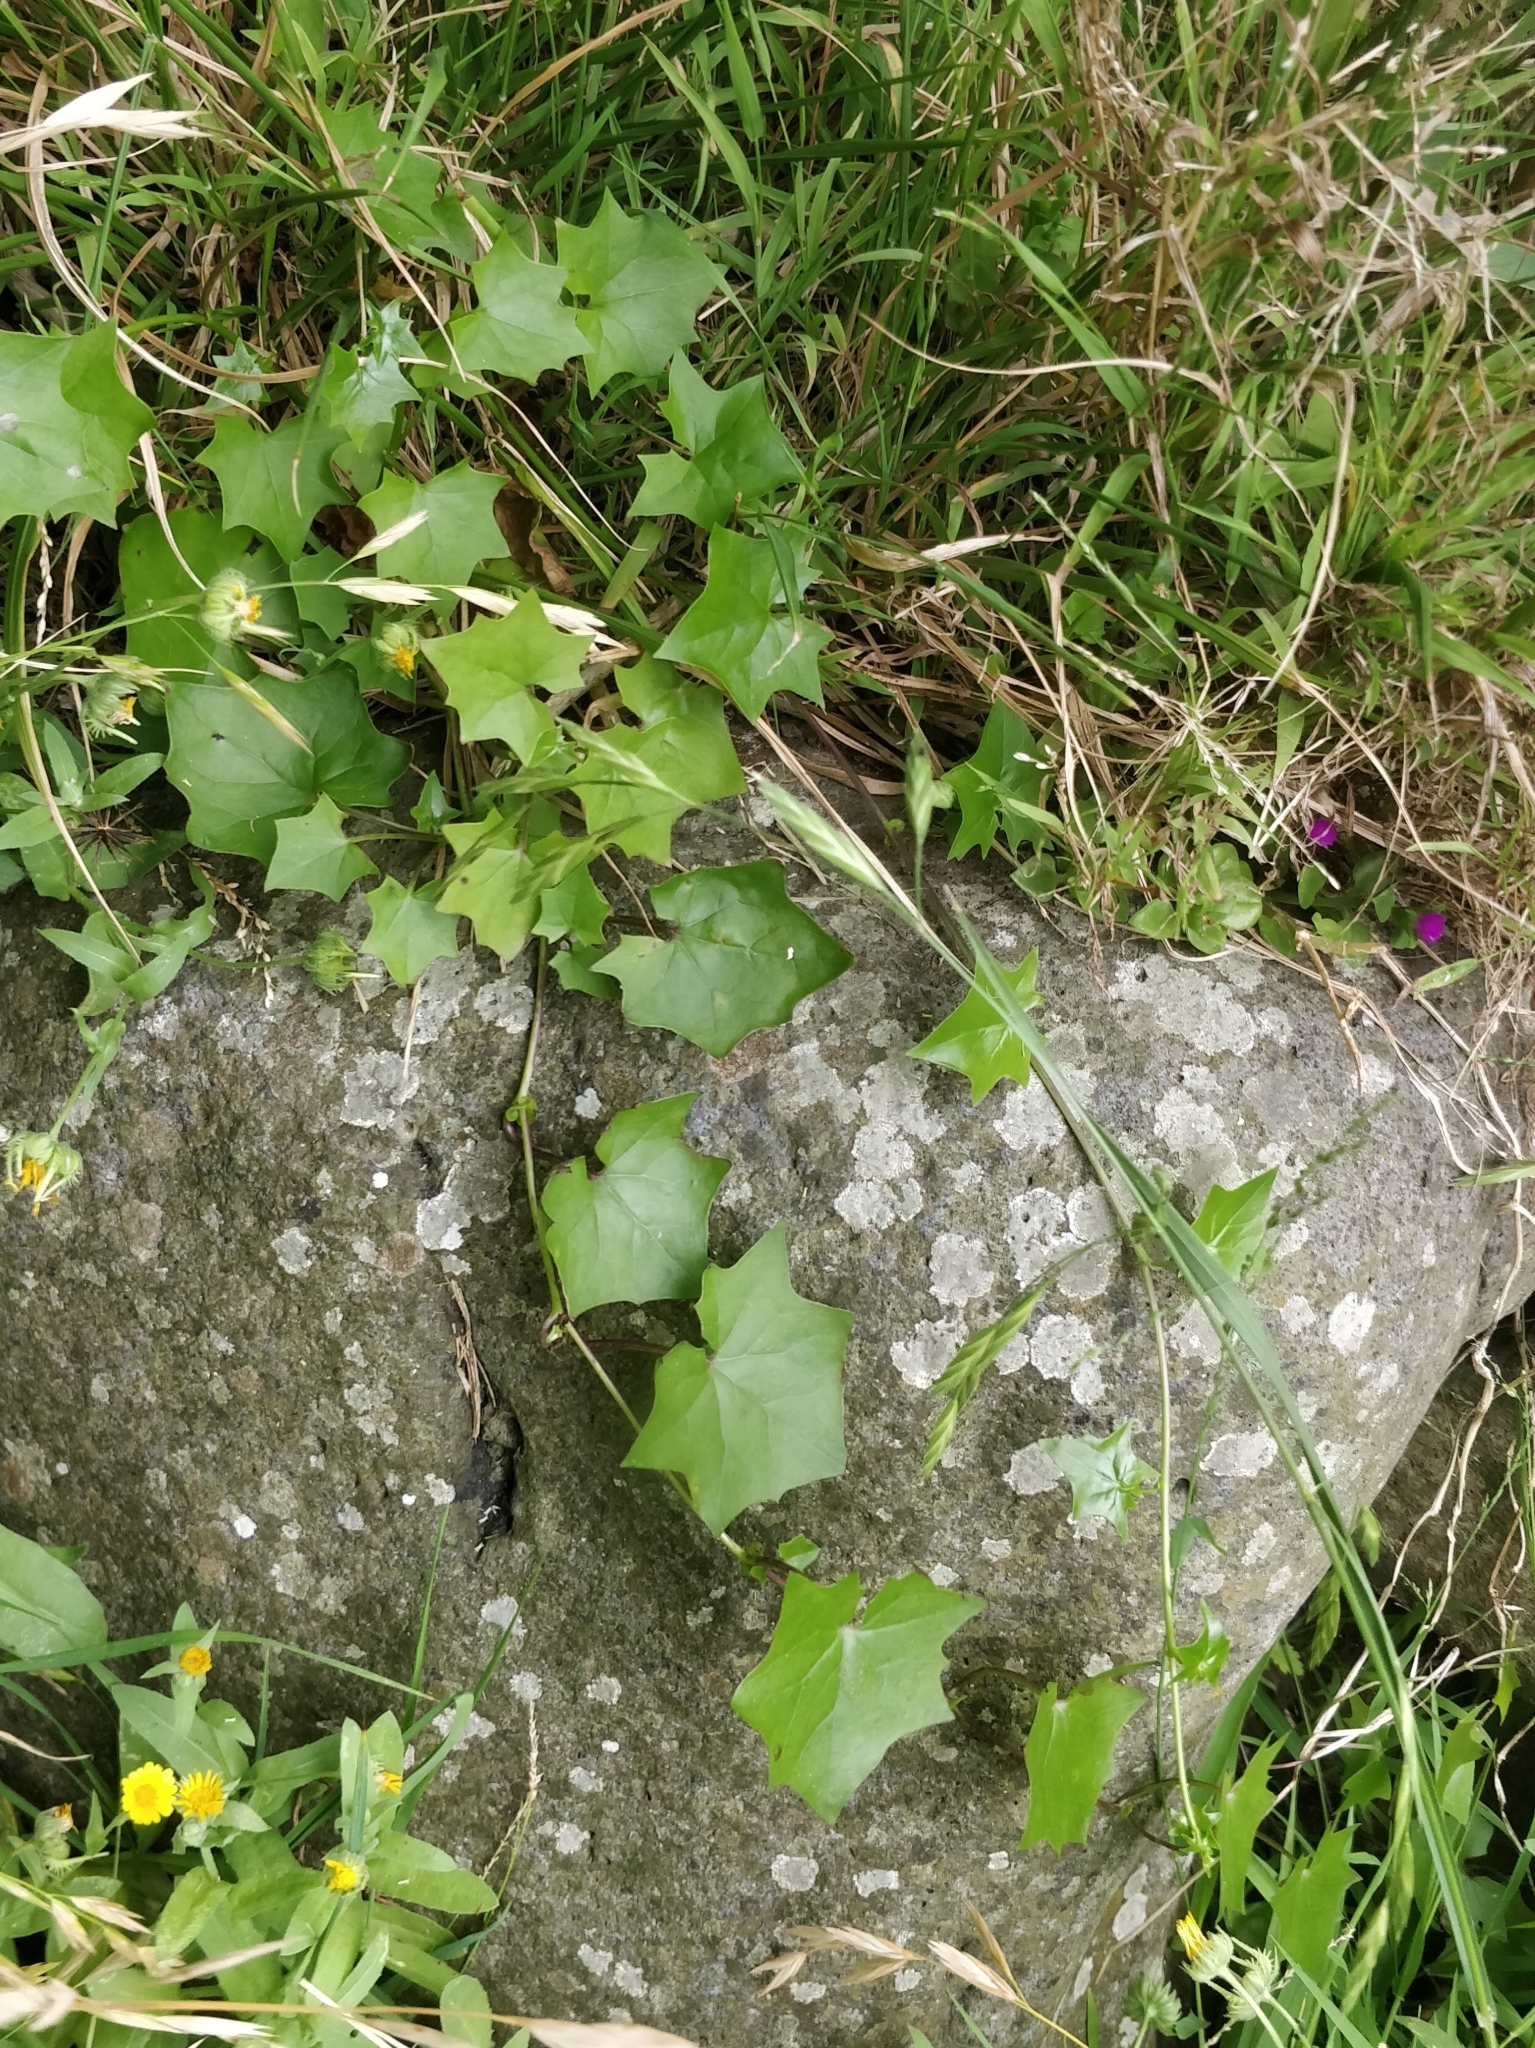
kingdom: Plantae
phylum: Tracheophyta
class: Magnoliopsida
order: Asterales
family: Asteraceae
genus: Delairea
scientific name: Delairea odorata
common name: Cape-ivy
